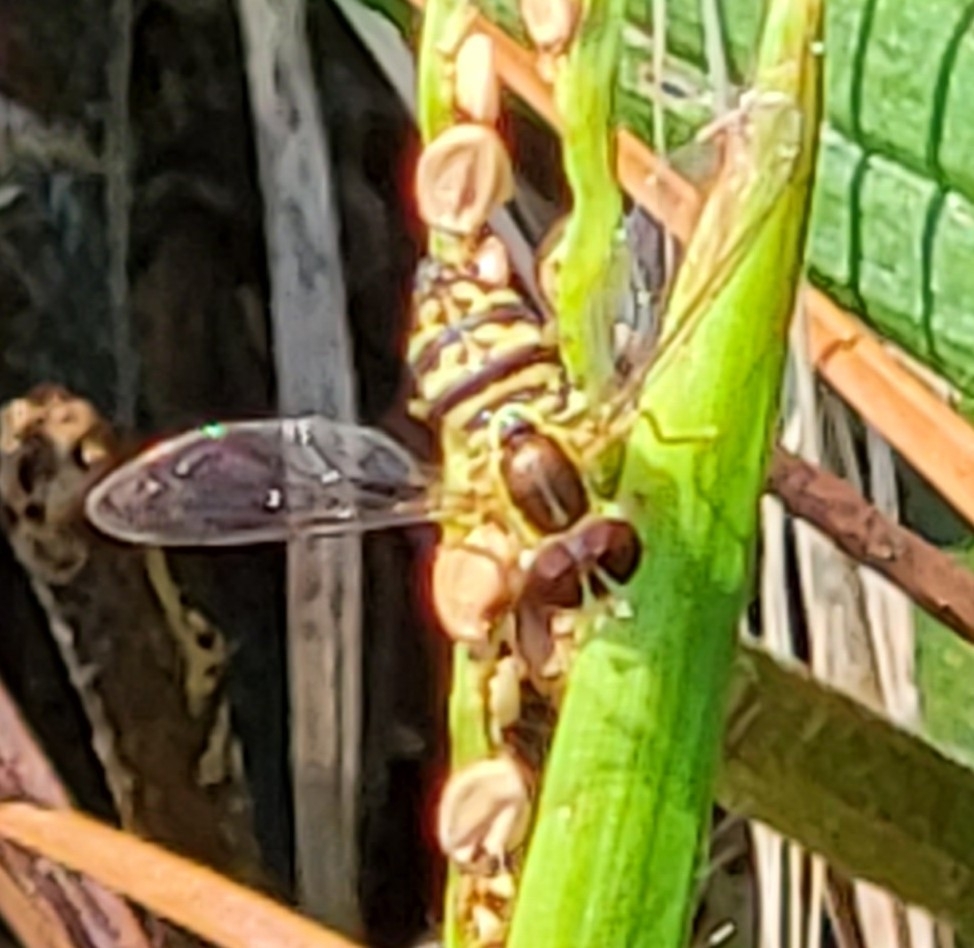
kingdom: Animalia
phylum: Arthropoda
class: Insecta
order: Diptera
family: Syrphidae
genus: Toxomerus
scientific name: Toxomerus geminatus
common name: Eastern calligrapher
